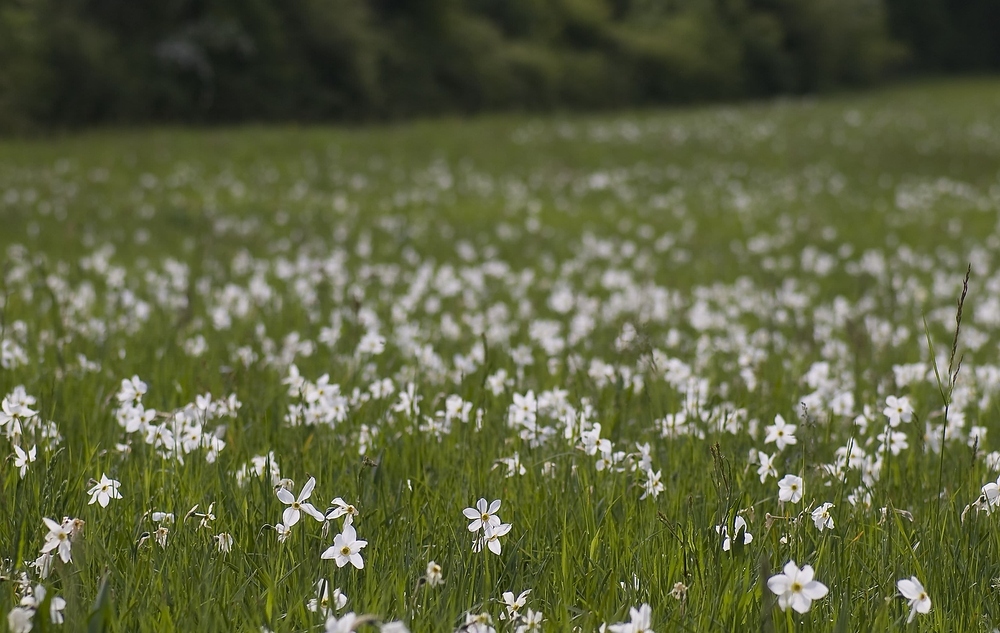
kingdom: Plantae
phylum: Tracheophyta
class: Liliopsida
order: Asparagales
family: Amaryllidaceae
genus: Narcissus
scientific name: Narcissus poeticus
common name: Pheasant's-eye daffodil
